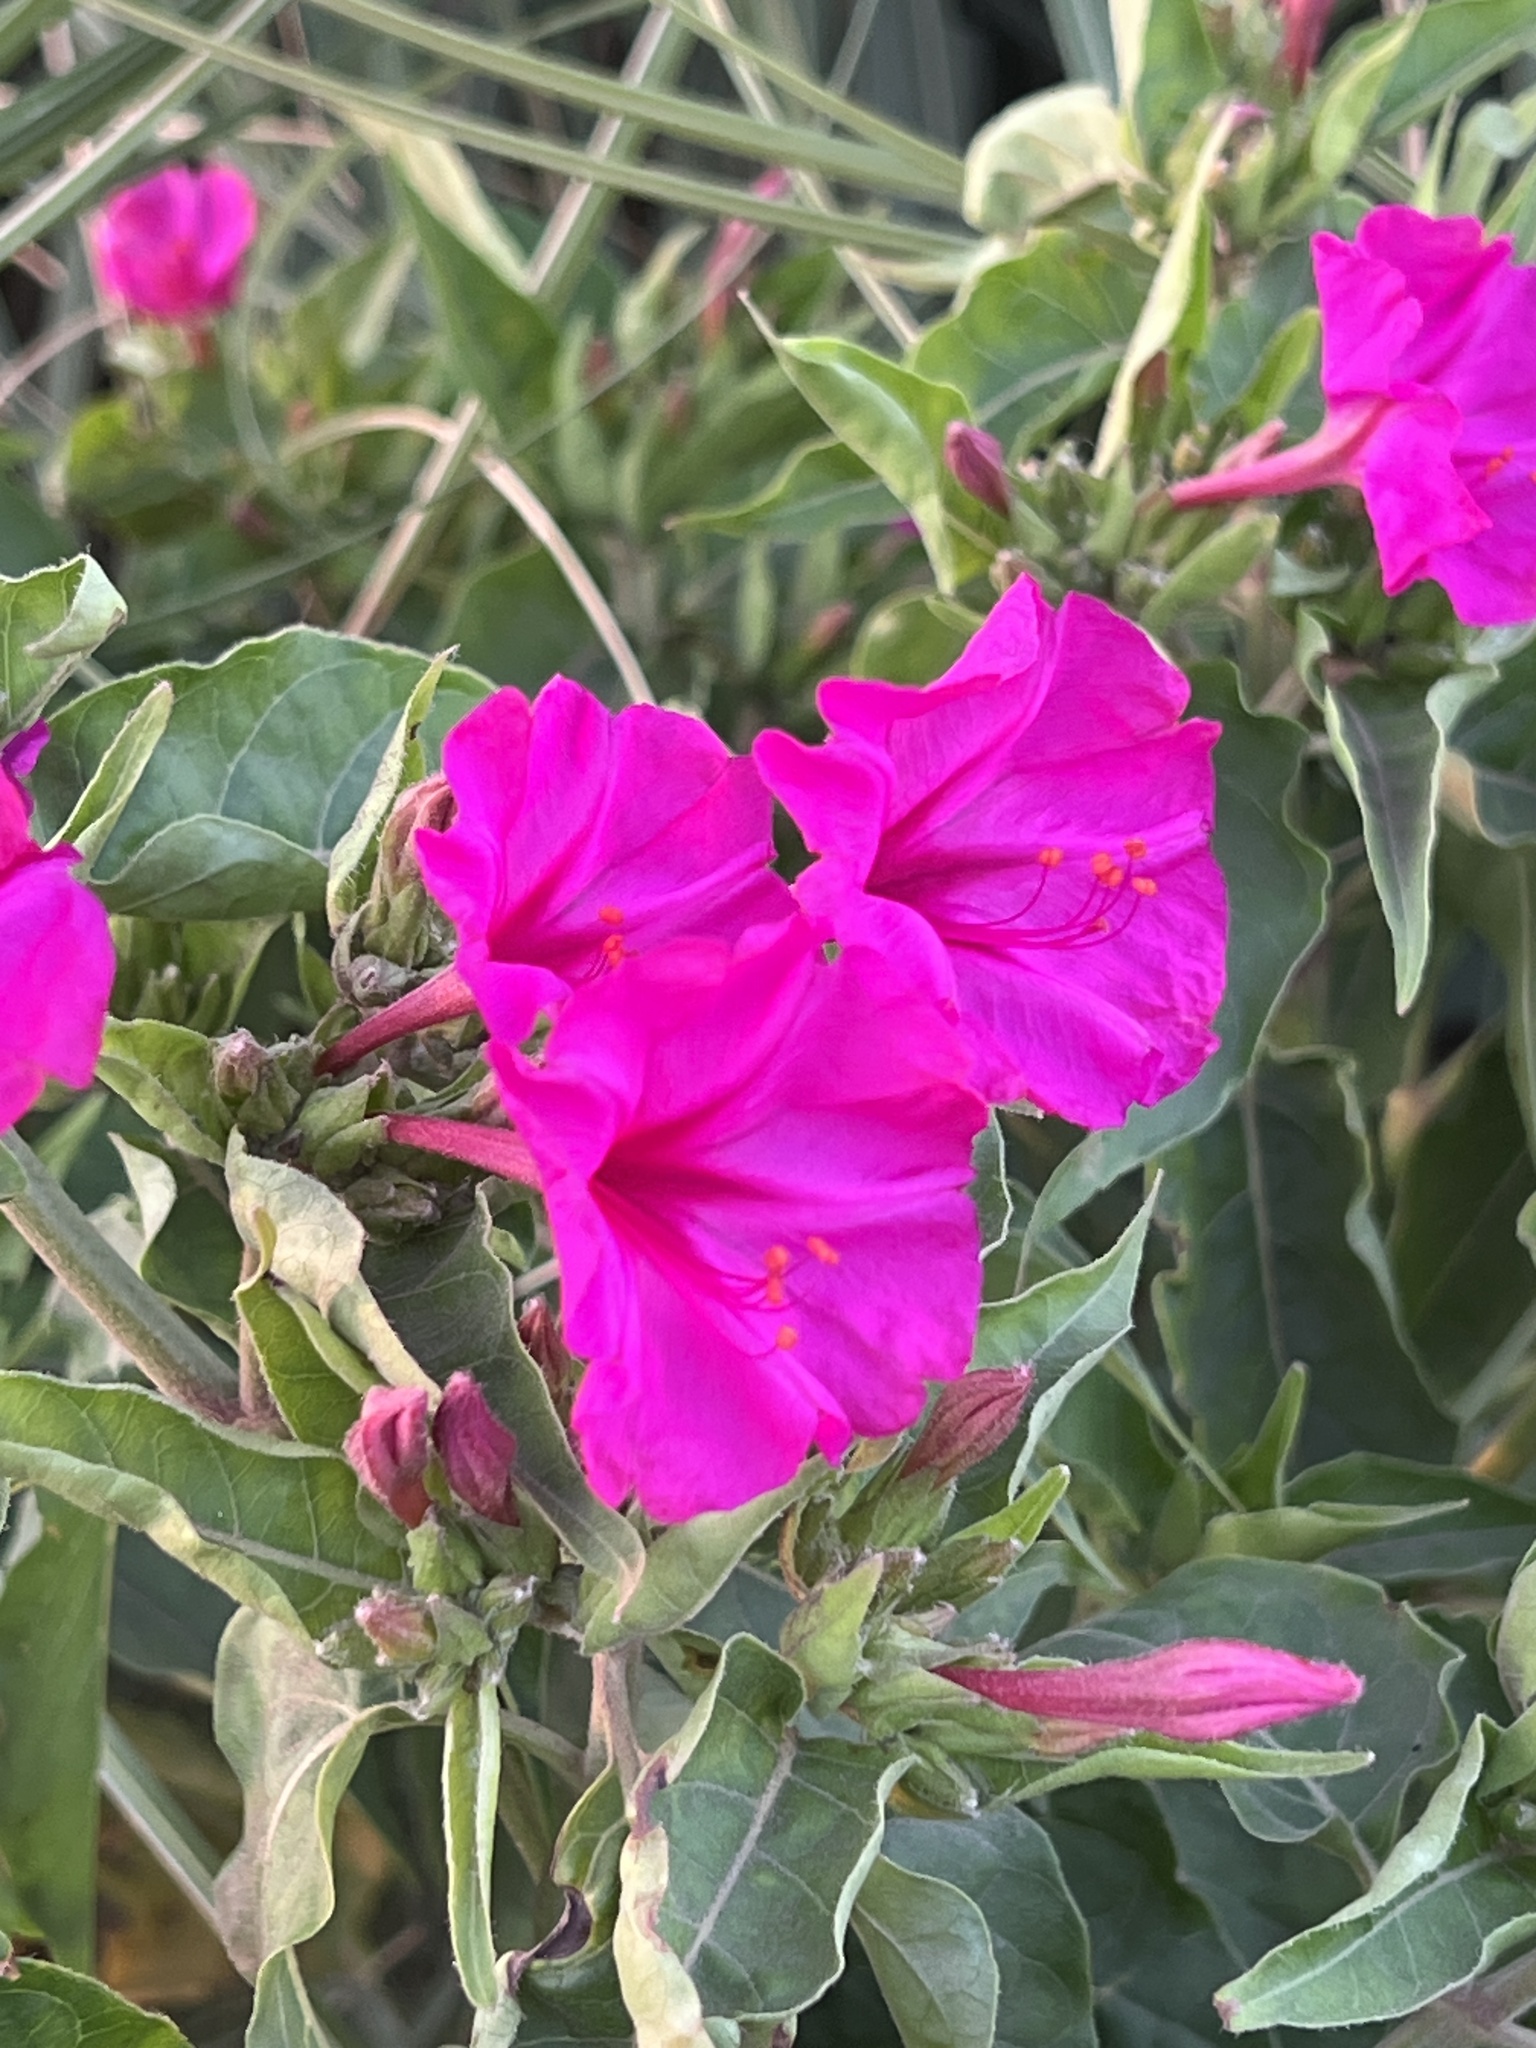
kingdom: Plantae
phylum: Tracheophyta
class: Magnoliopsida
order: Caryophyllales
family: Nyctaginaceae
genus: Mirabilis
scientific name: Mirabilis jalapa
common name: Marvel-of-peru
